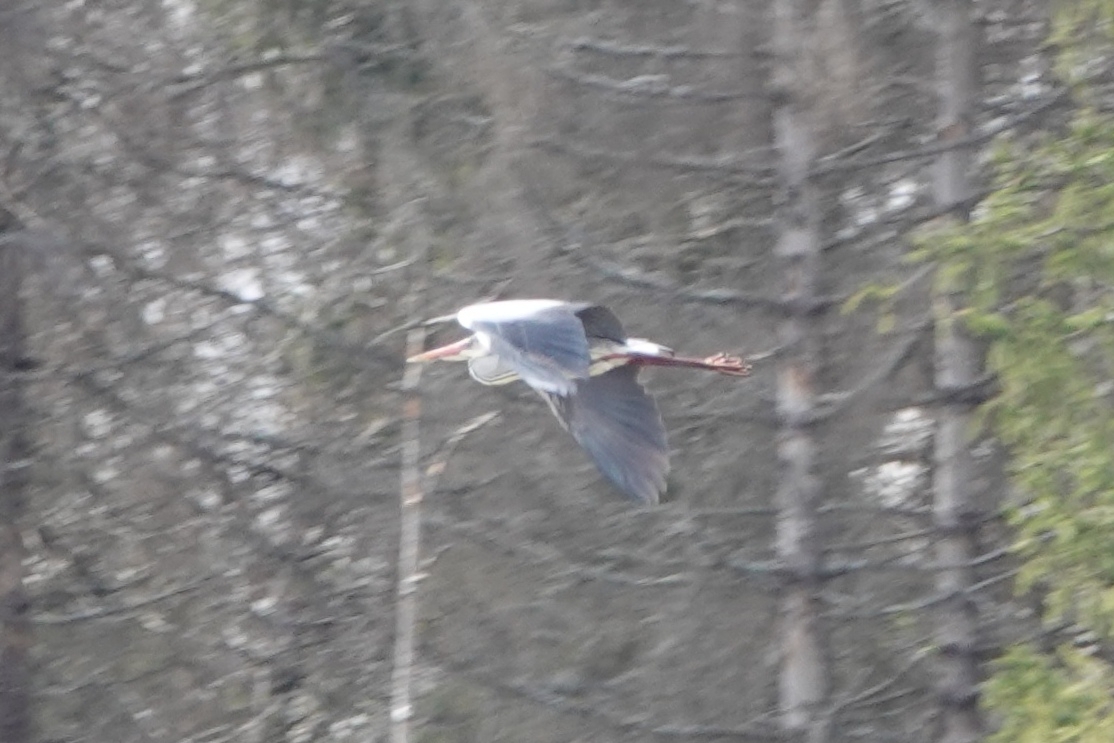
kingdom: Animalia
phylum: Chordata
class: Aves
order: Pelecaniformes
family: Ardeidae
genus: Ardea
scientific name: Ardea cinerea
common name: Grey heron
